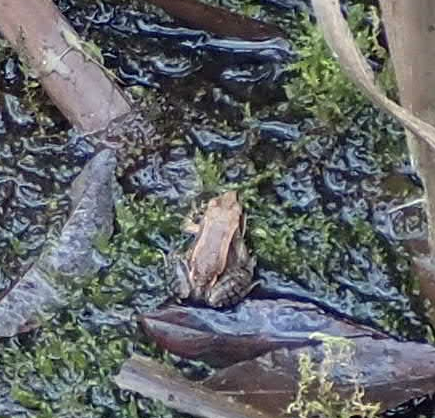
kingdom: Animalia
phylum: Chordata
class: Amphibia
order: Anura
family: Ranidae
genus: Lithobates
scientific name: Lithobates sylvaticus
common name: Wood frog
